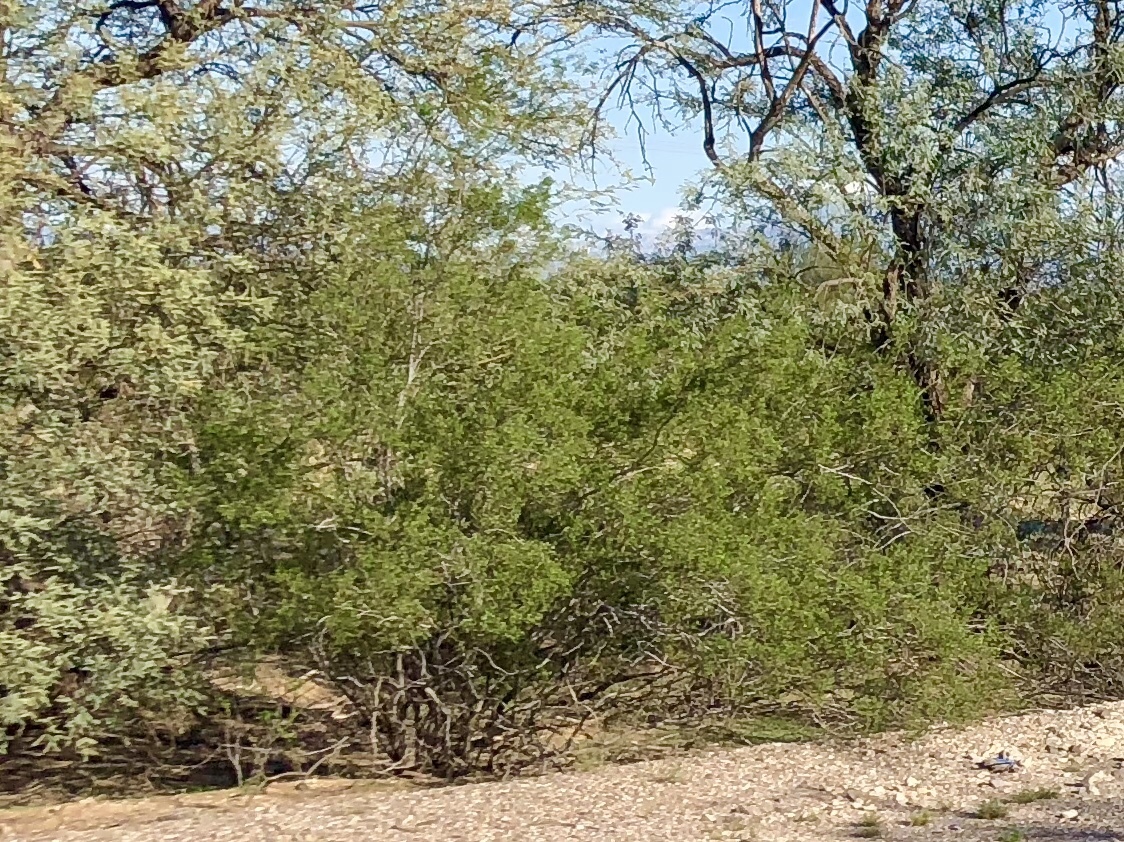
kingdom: Plantae
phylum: Tracheophyta
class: Magnoliopsida
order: Zygophyllales
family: Zygophyllaceae
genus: Larrea
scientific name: Larrea tridentata
